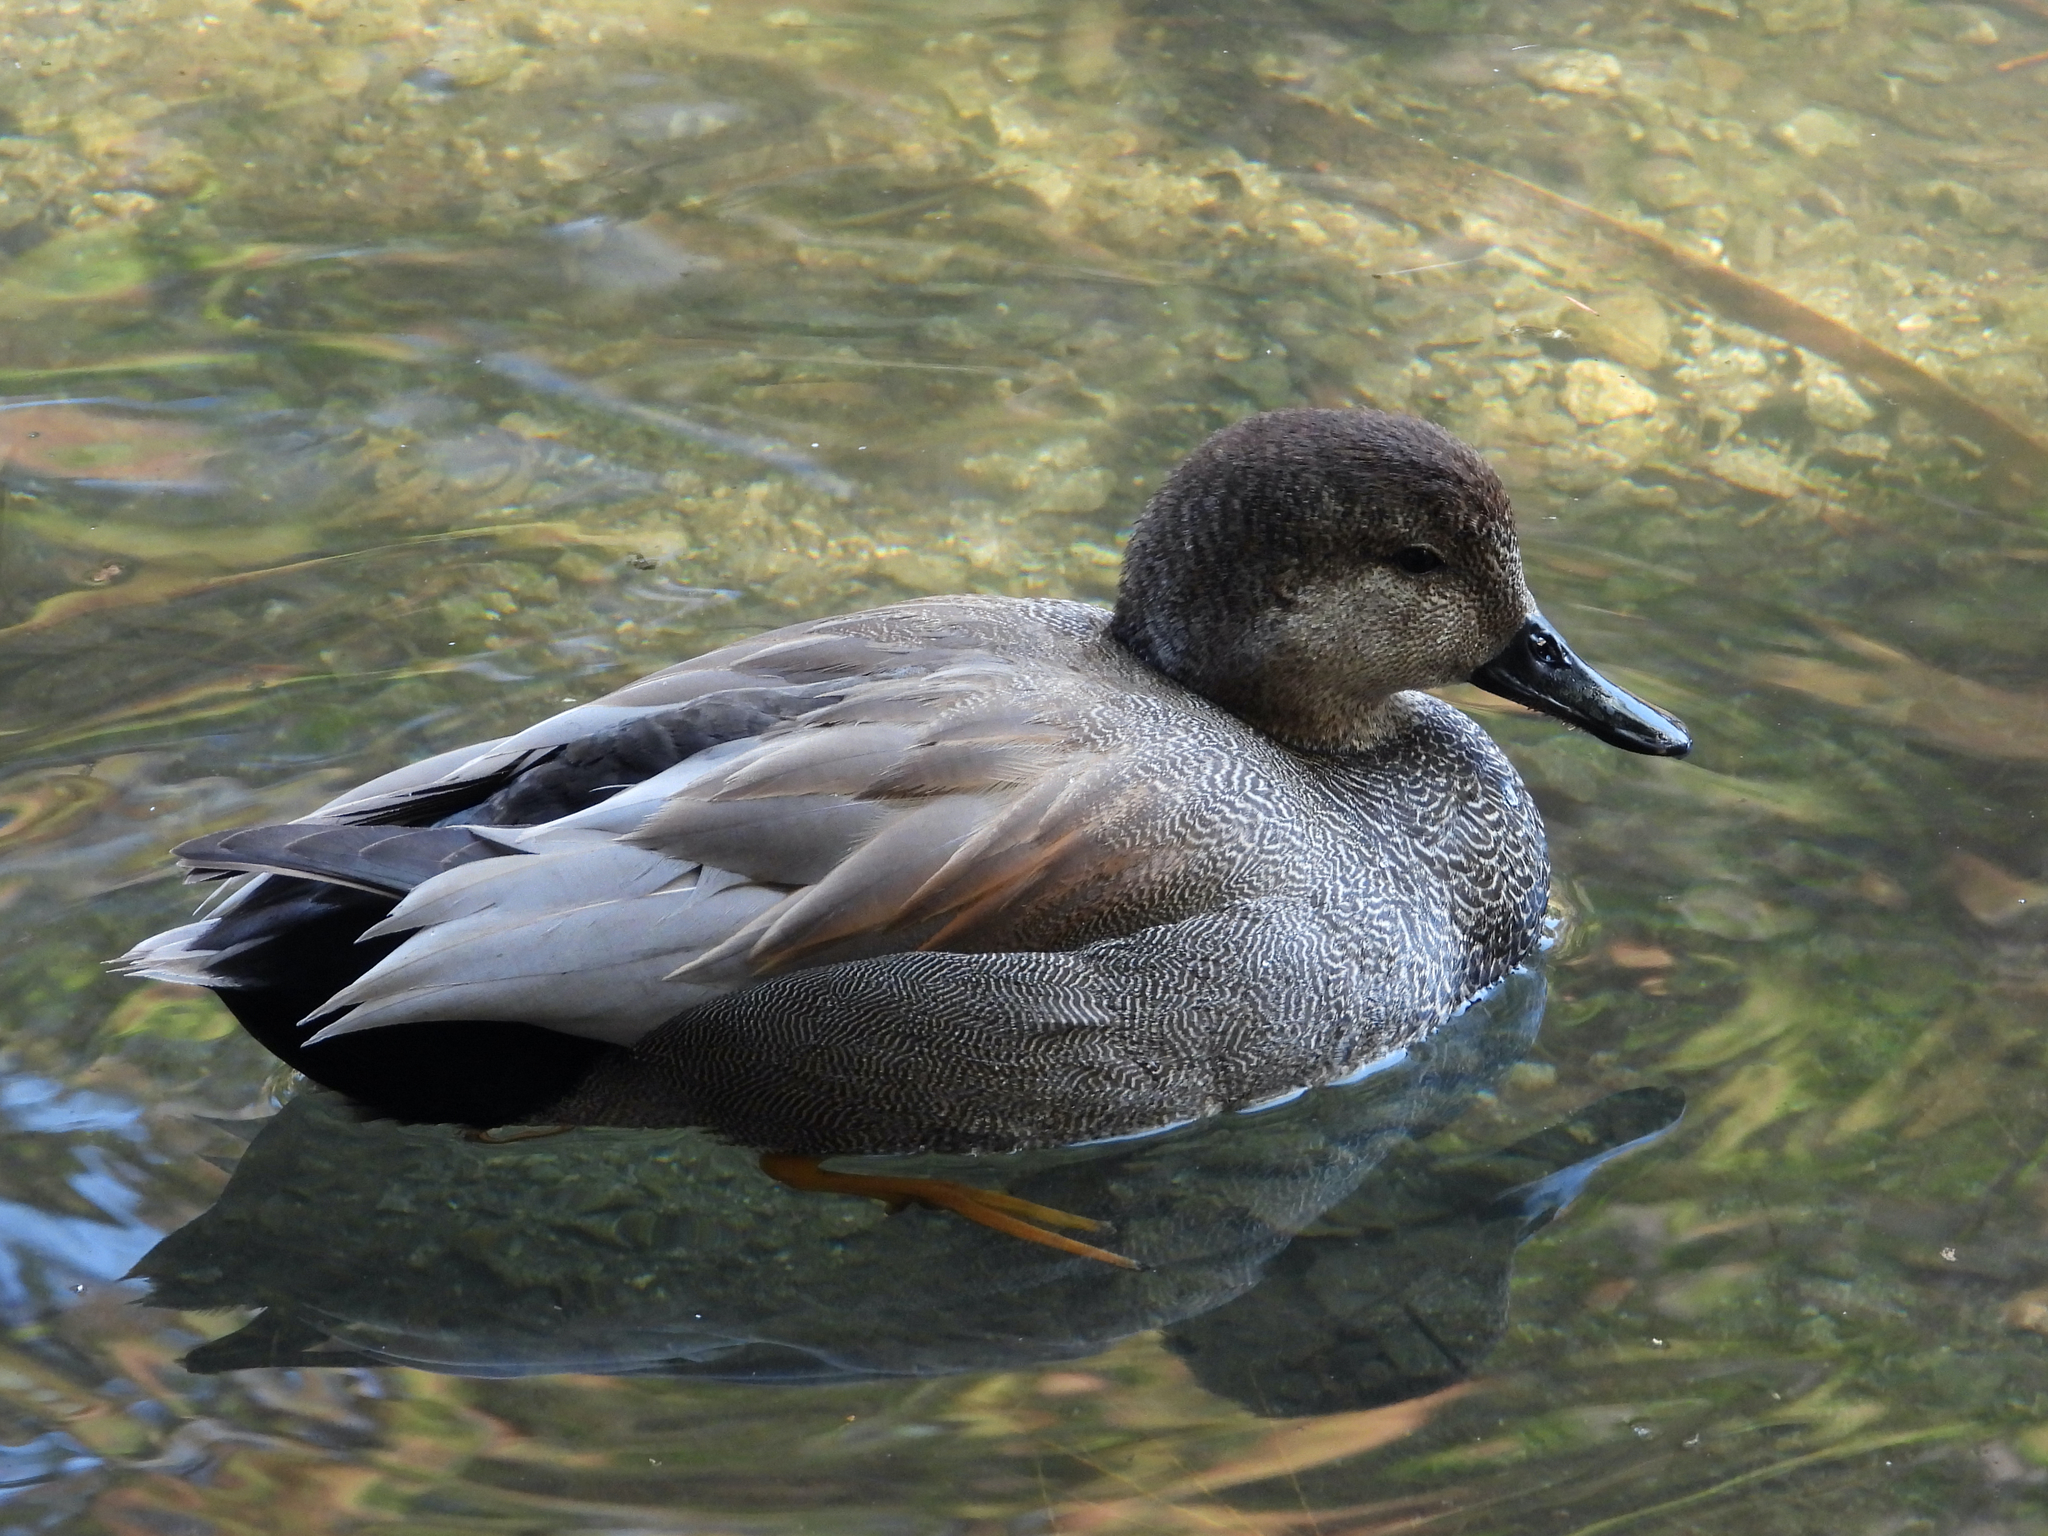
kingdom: Animalia
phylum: Chordata
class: Aves
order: Anseriformes
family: Anatidae
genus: Mareca
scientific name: Mareca strepera
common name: Gadwall
